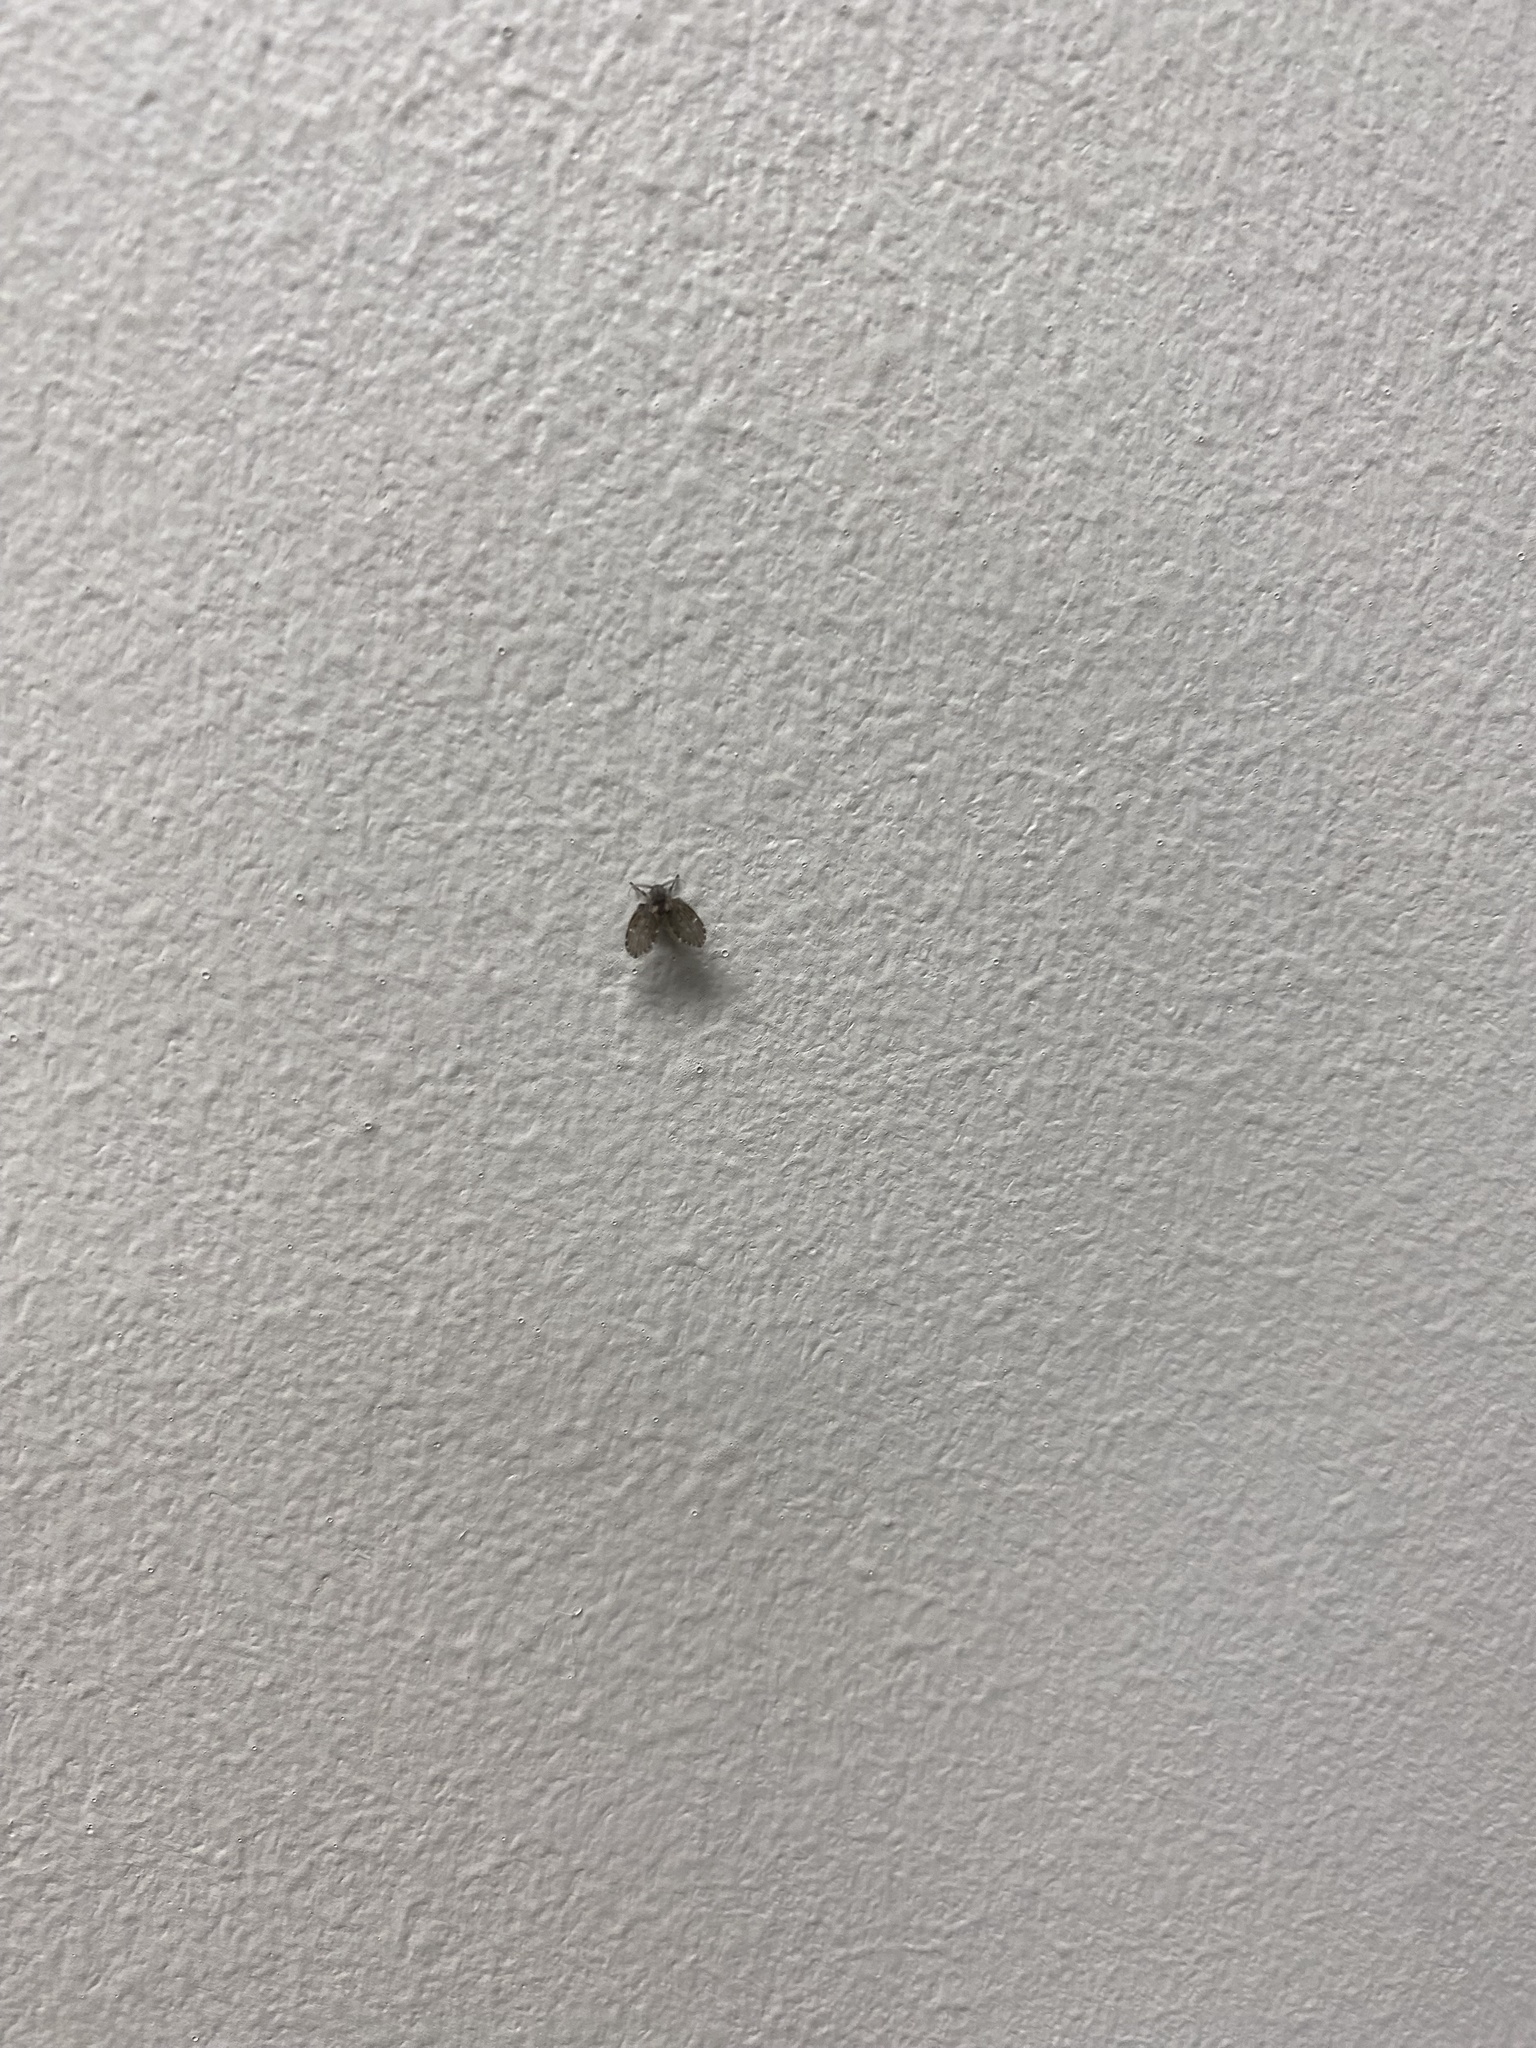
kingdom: Animalia
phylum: Arthropoda
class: Insecta
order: Diptera
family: Psychodidae
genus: Clogmia
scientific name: Clogmia albipunctatus
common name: White-spotted moth fly
